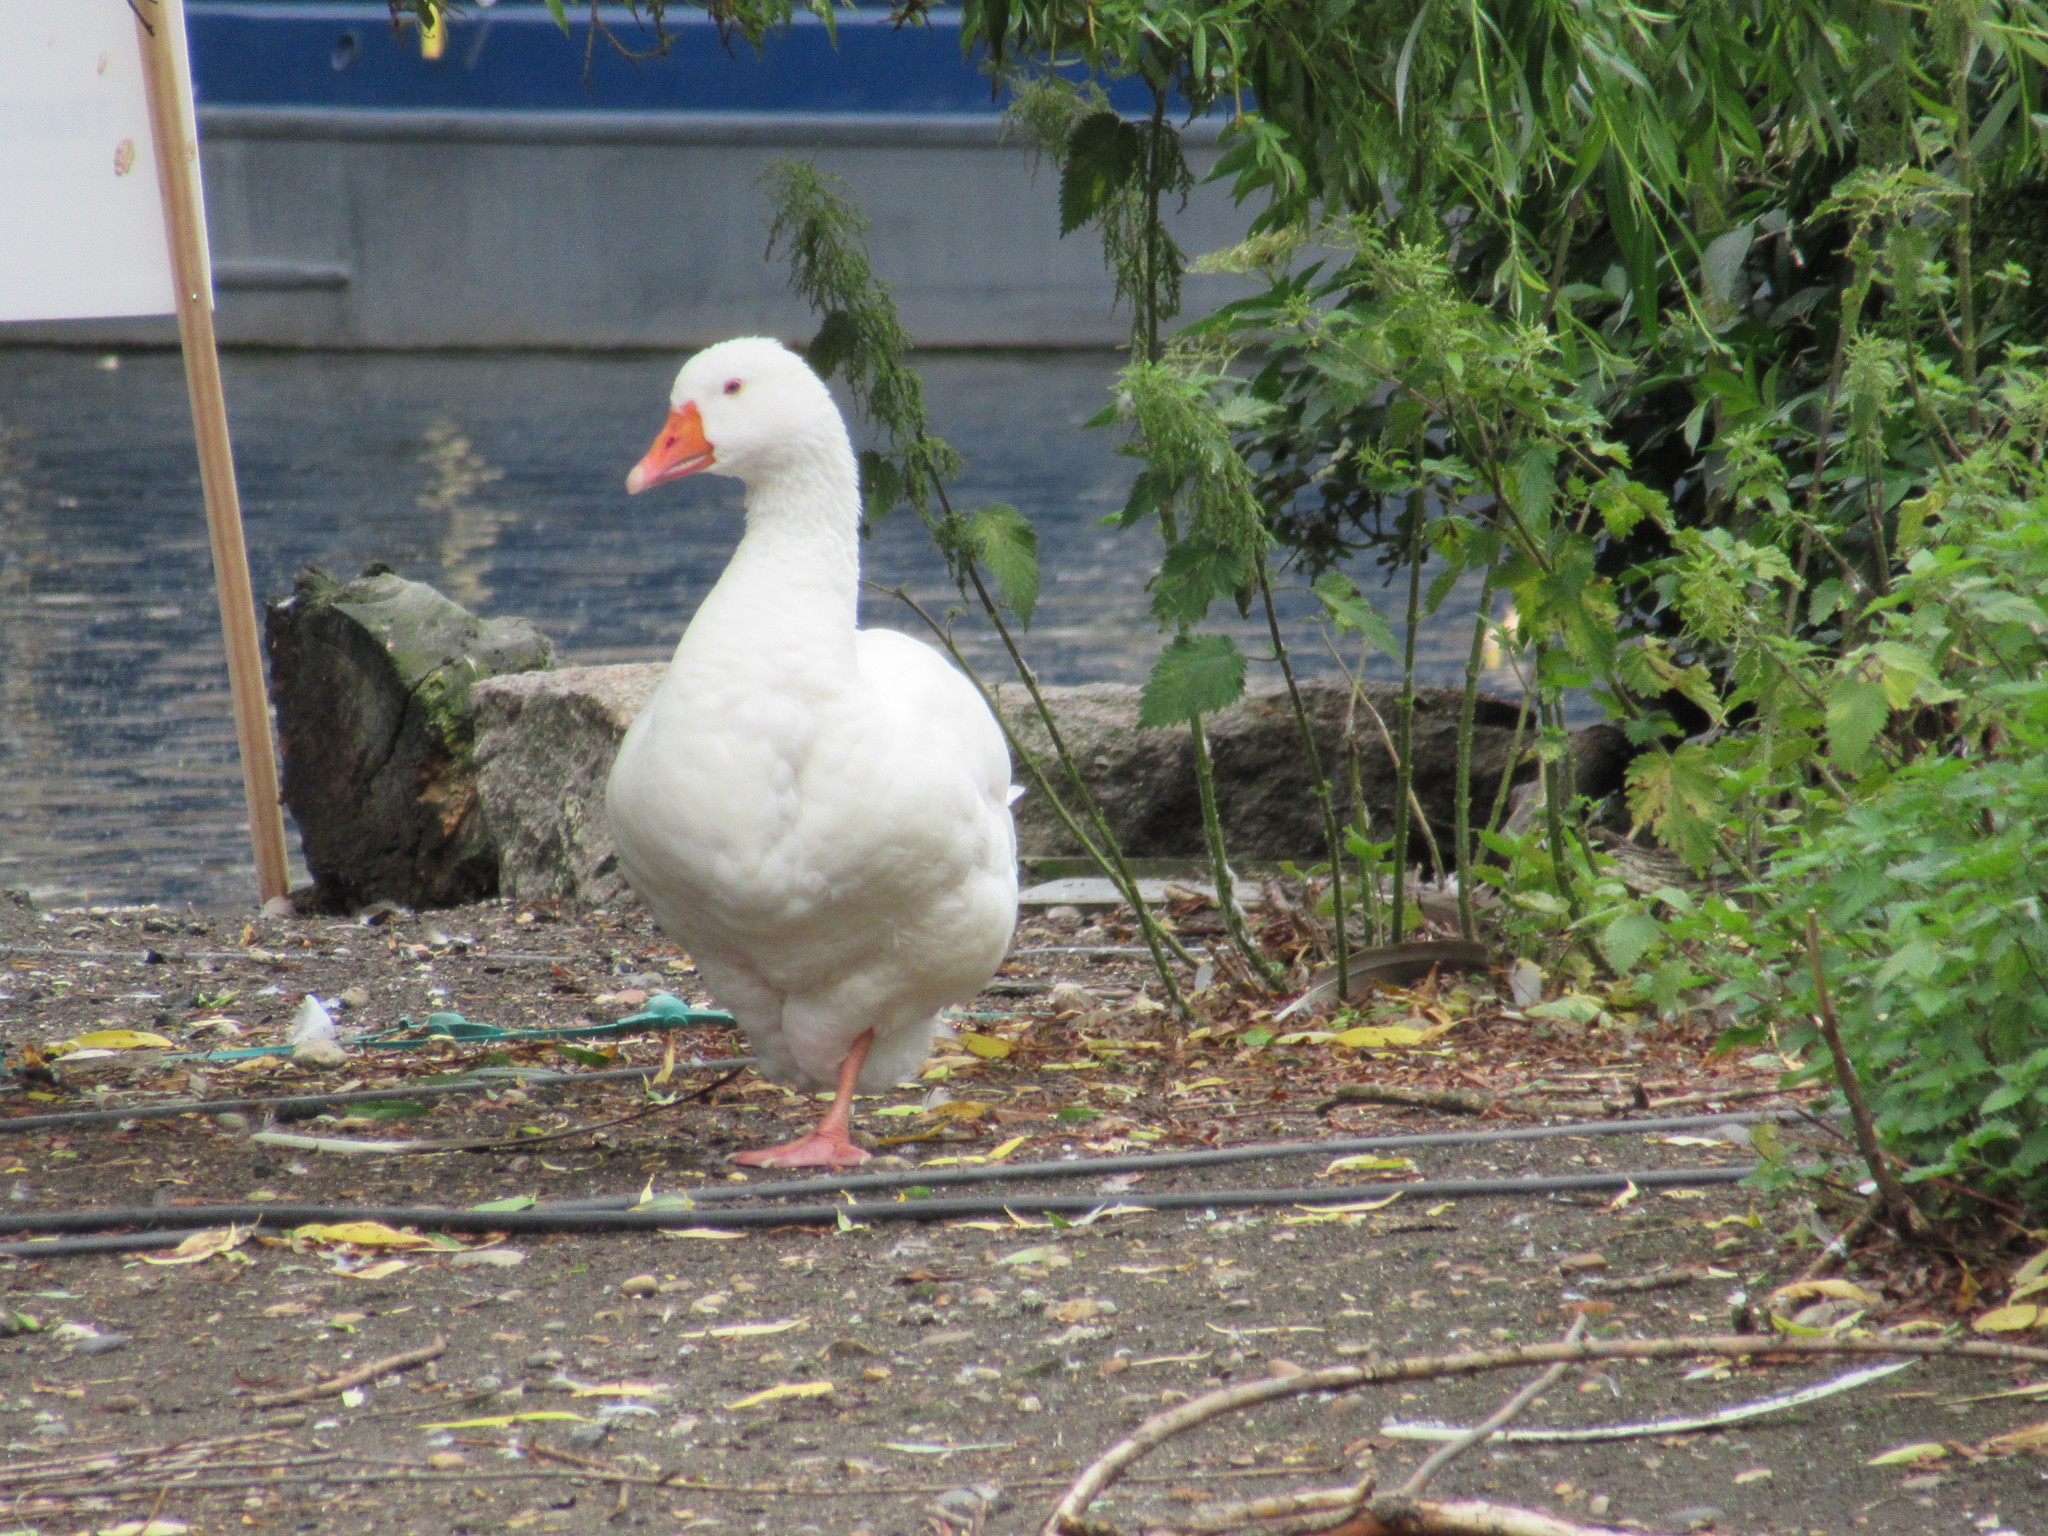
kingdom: Animalia
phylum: Chordata
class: Aves
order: Anseriformes
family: Anatidae
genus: Anser
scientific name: Anser anser
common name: Greylag goose
